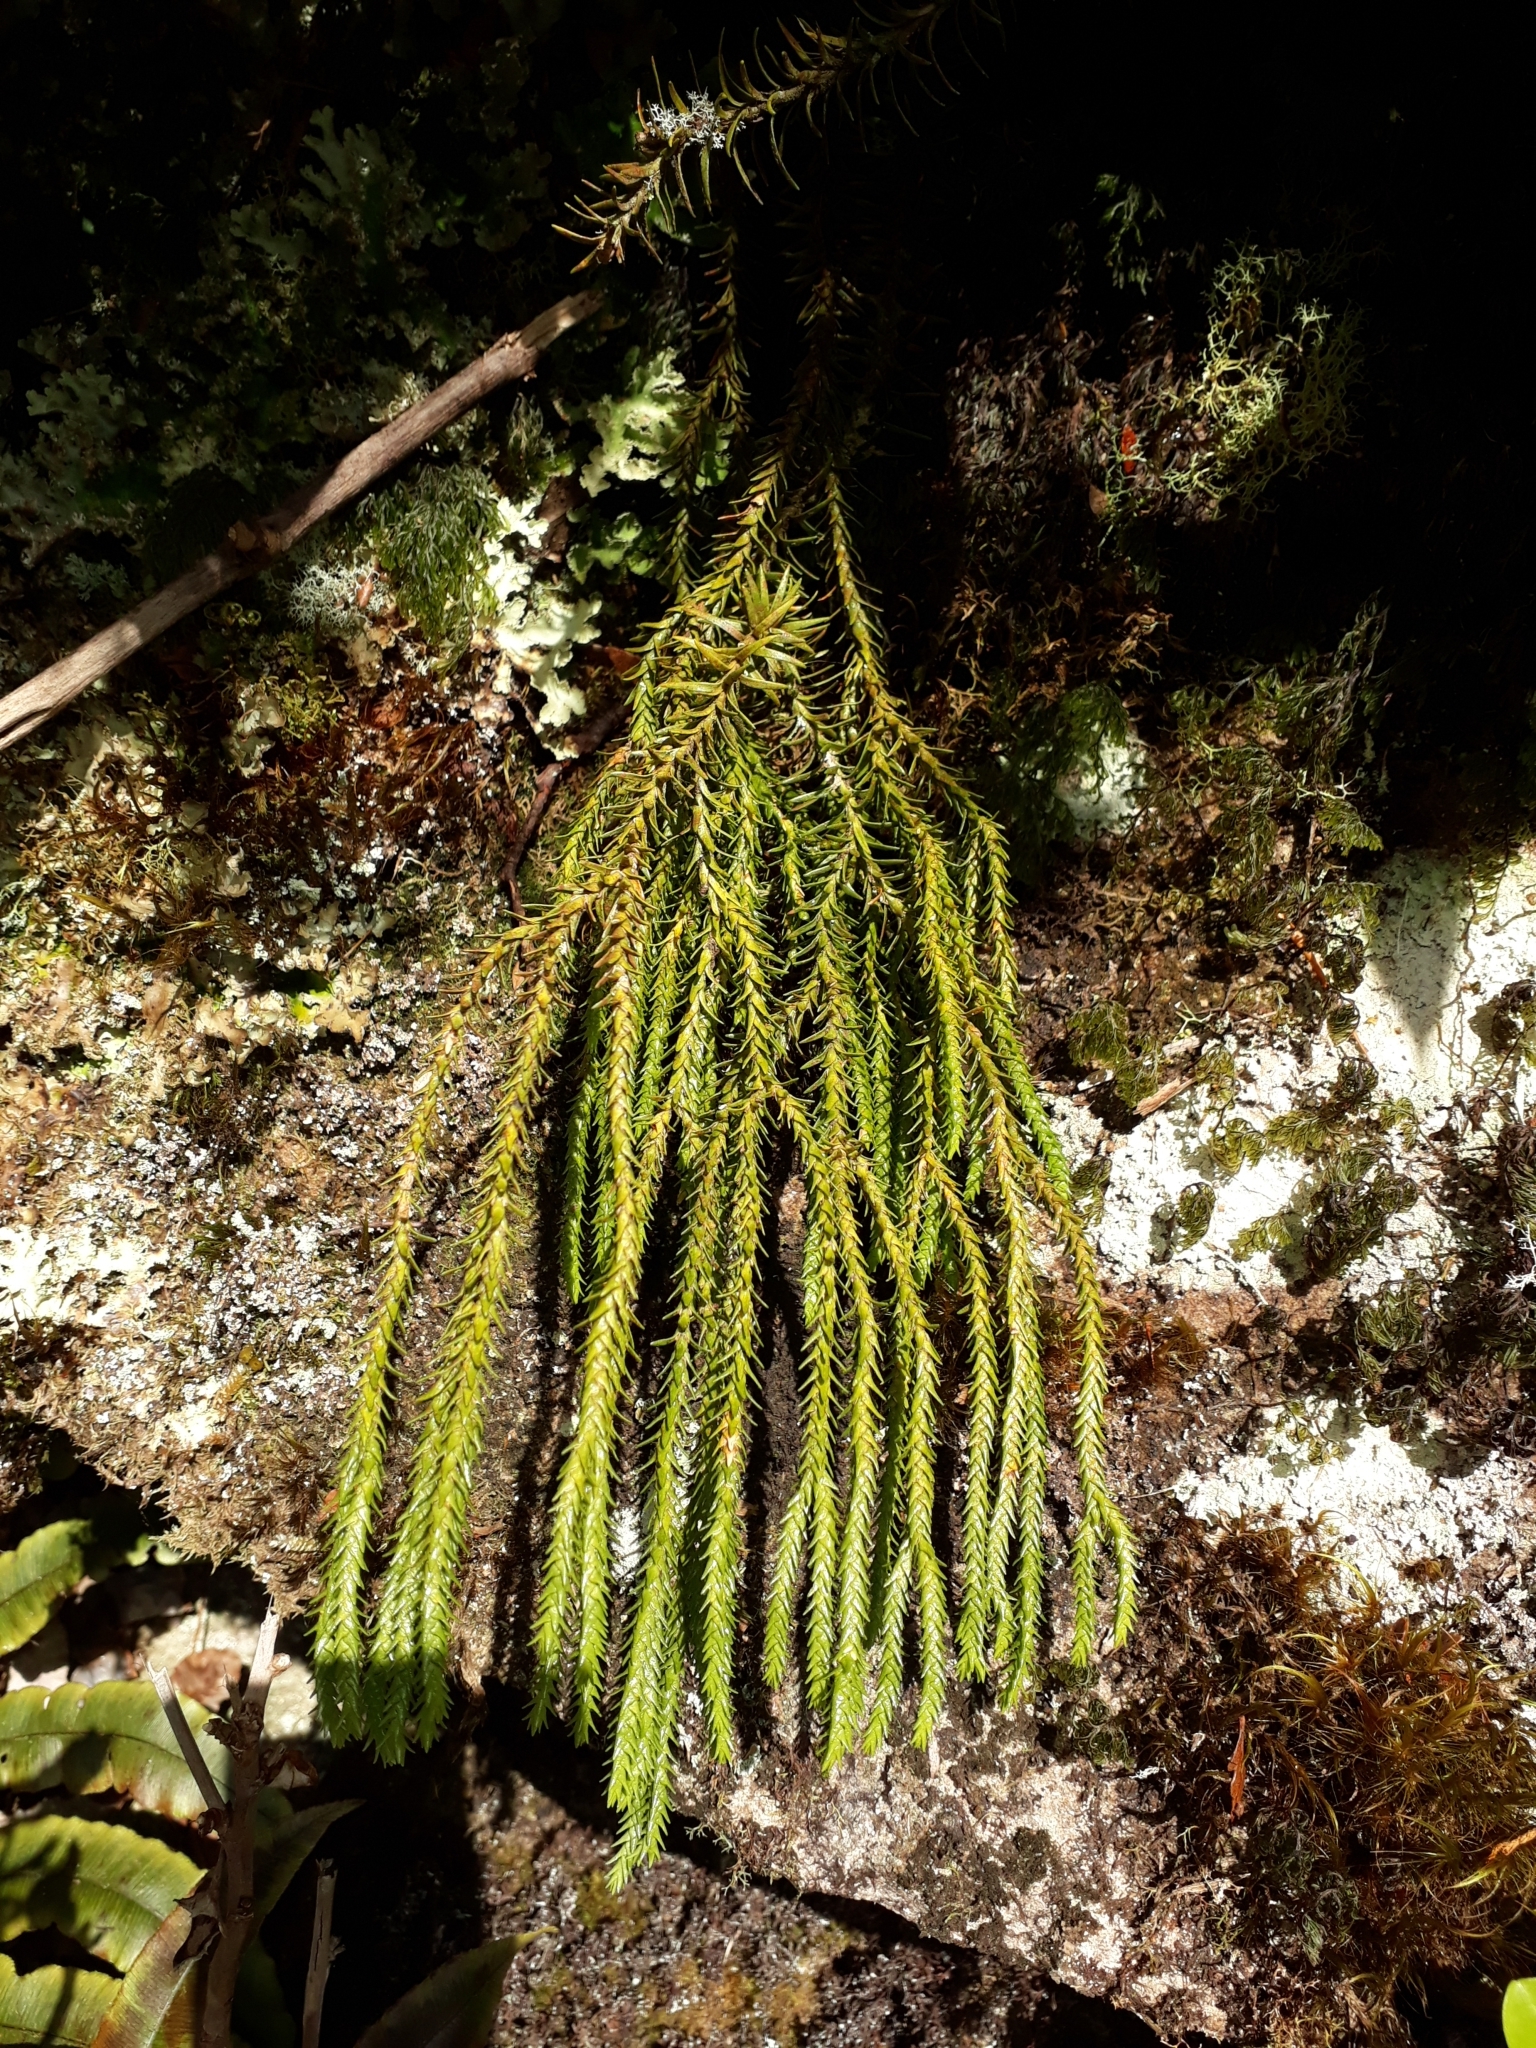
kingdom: Plantae
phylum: Tracheophyta
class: Lycopodiopsida
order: Lycopodiales
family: Lycopodiaceae
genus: Phlegmariurus
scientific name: Phlegmariurus varius
